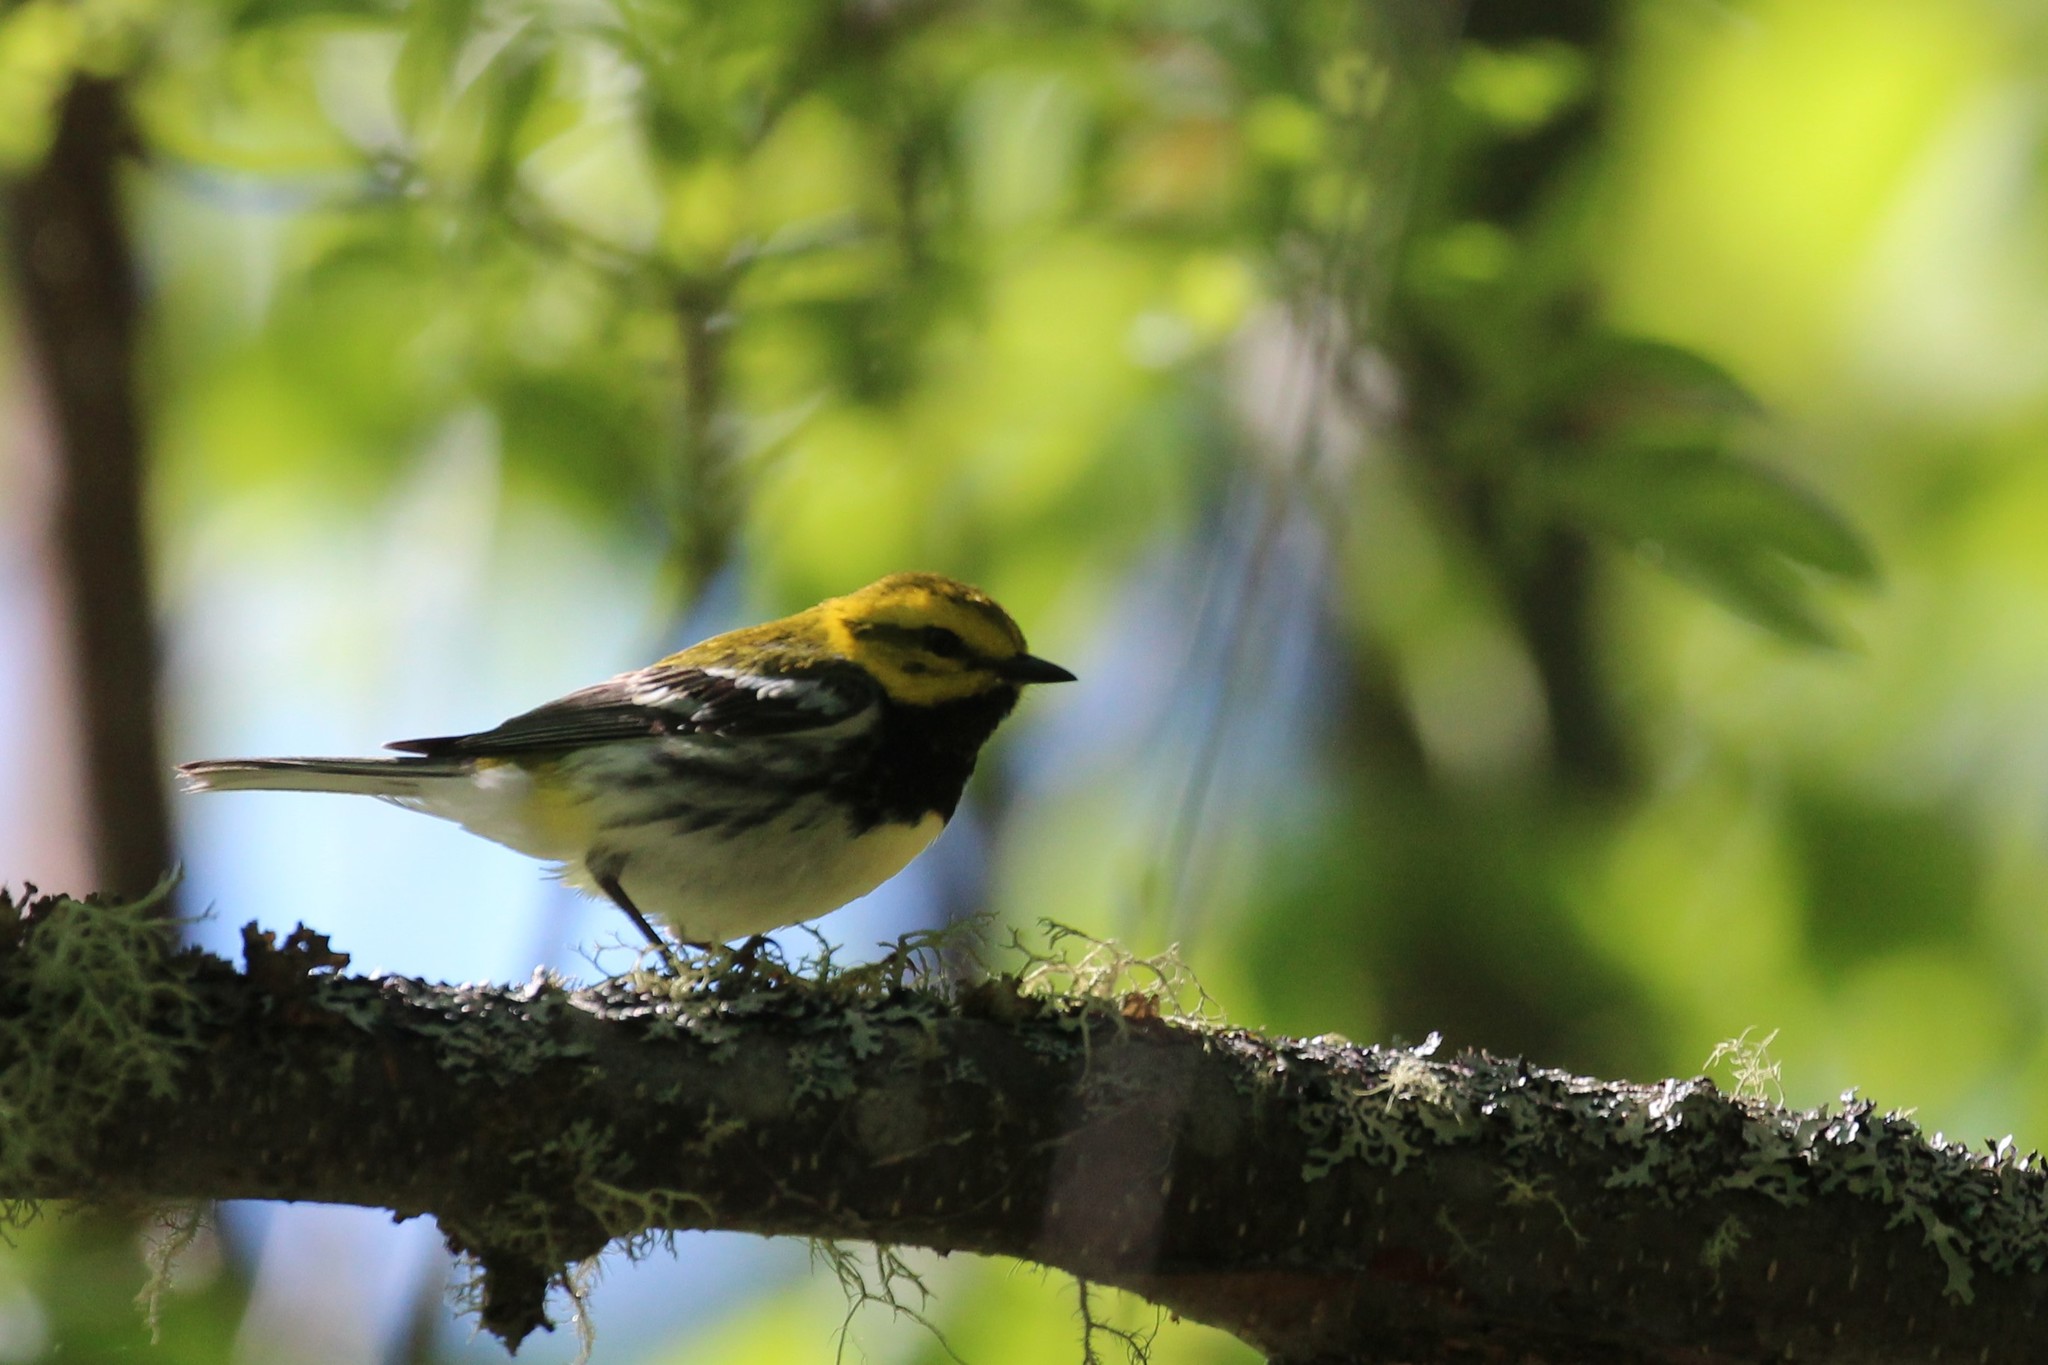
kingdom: Animalia
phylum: Chordata
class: Aves
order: Passeriformes
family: Parulidae
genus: Setophaga
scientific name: Setophaga virens
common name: Black-throated green warbler
